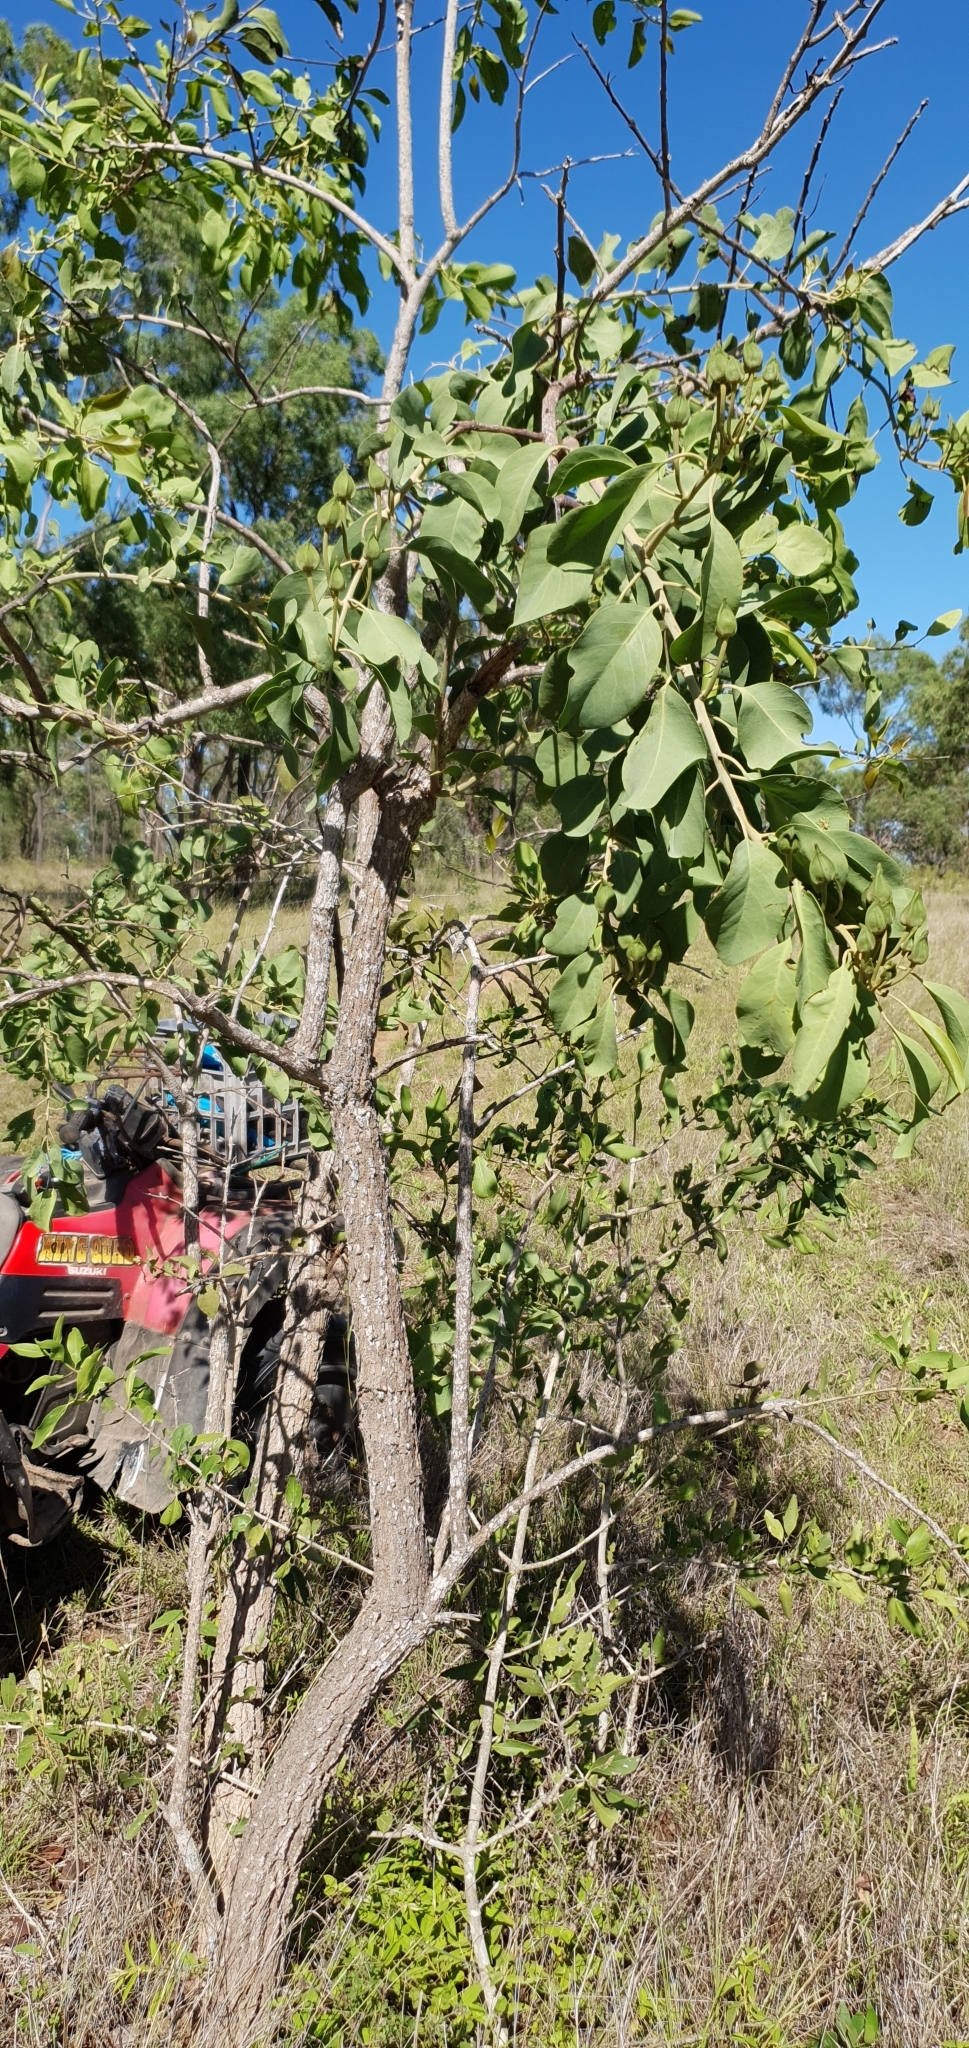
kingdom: Plantae
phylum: Tracheophyta
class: Magnoliopsida
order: Brassicales
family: Capparaceae
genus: Capparis
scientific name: Capparis canescens
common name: Native caper
